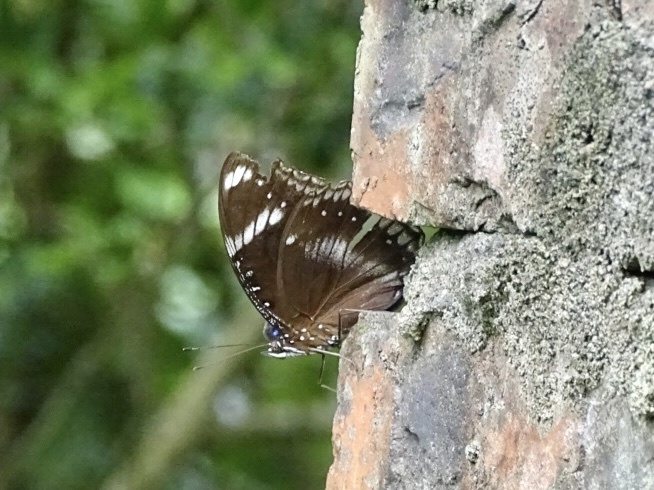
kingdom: Animalia
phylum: Arthropoda
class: Insecta
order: Lepidoptera
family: Nymphalidae
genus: Hypolimnas
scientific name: Hypolimnas bolina
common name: Great eggfly
